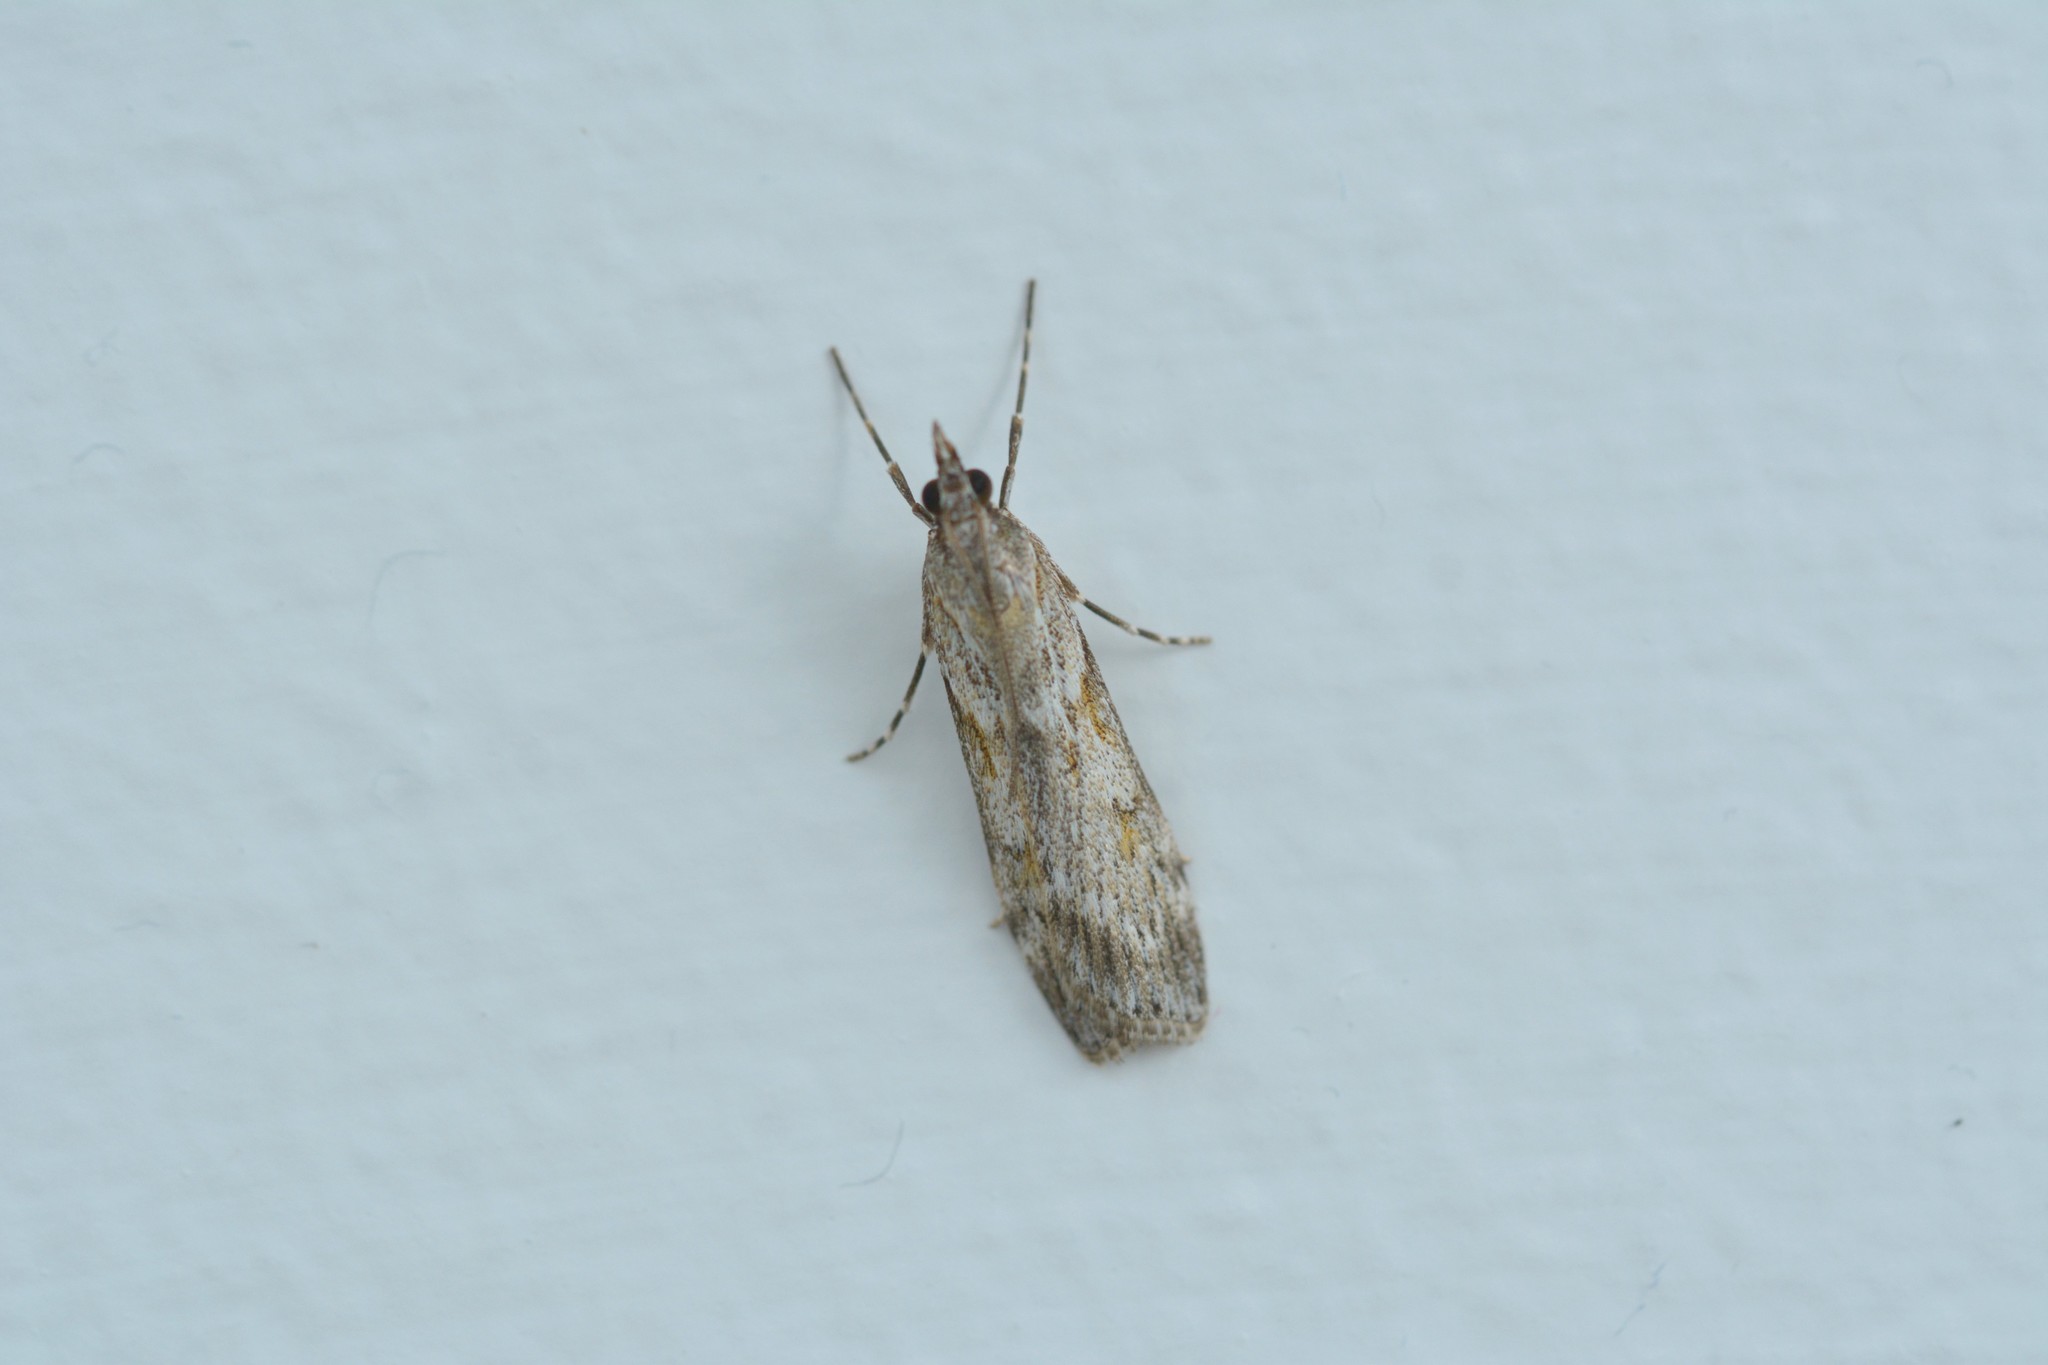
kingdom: Animalia
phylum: Arthropoda
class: Insecta
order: Lepidoptera
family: Crambidae
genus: Scoparia
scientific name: Scoparia halopis
